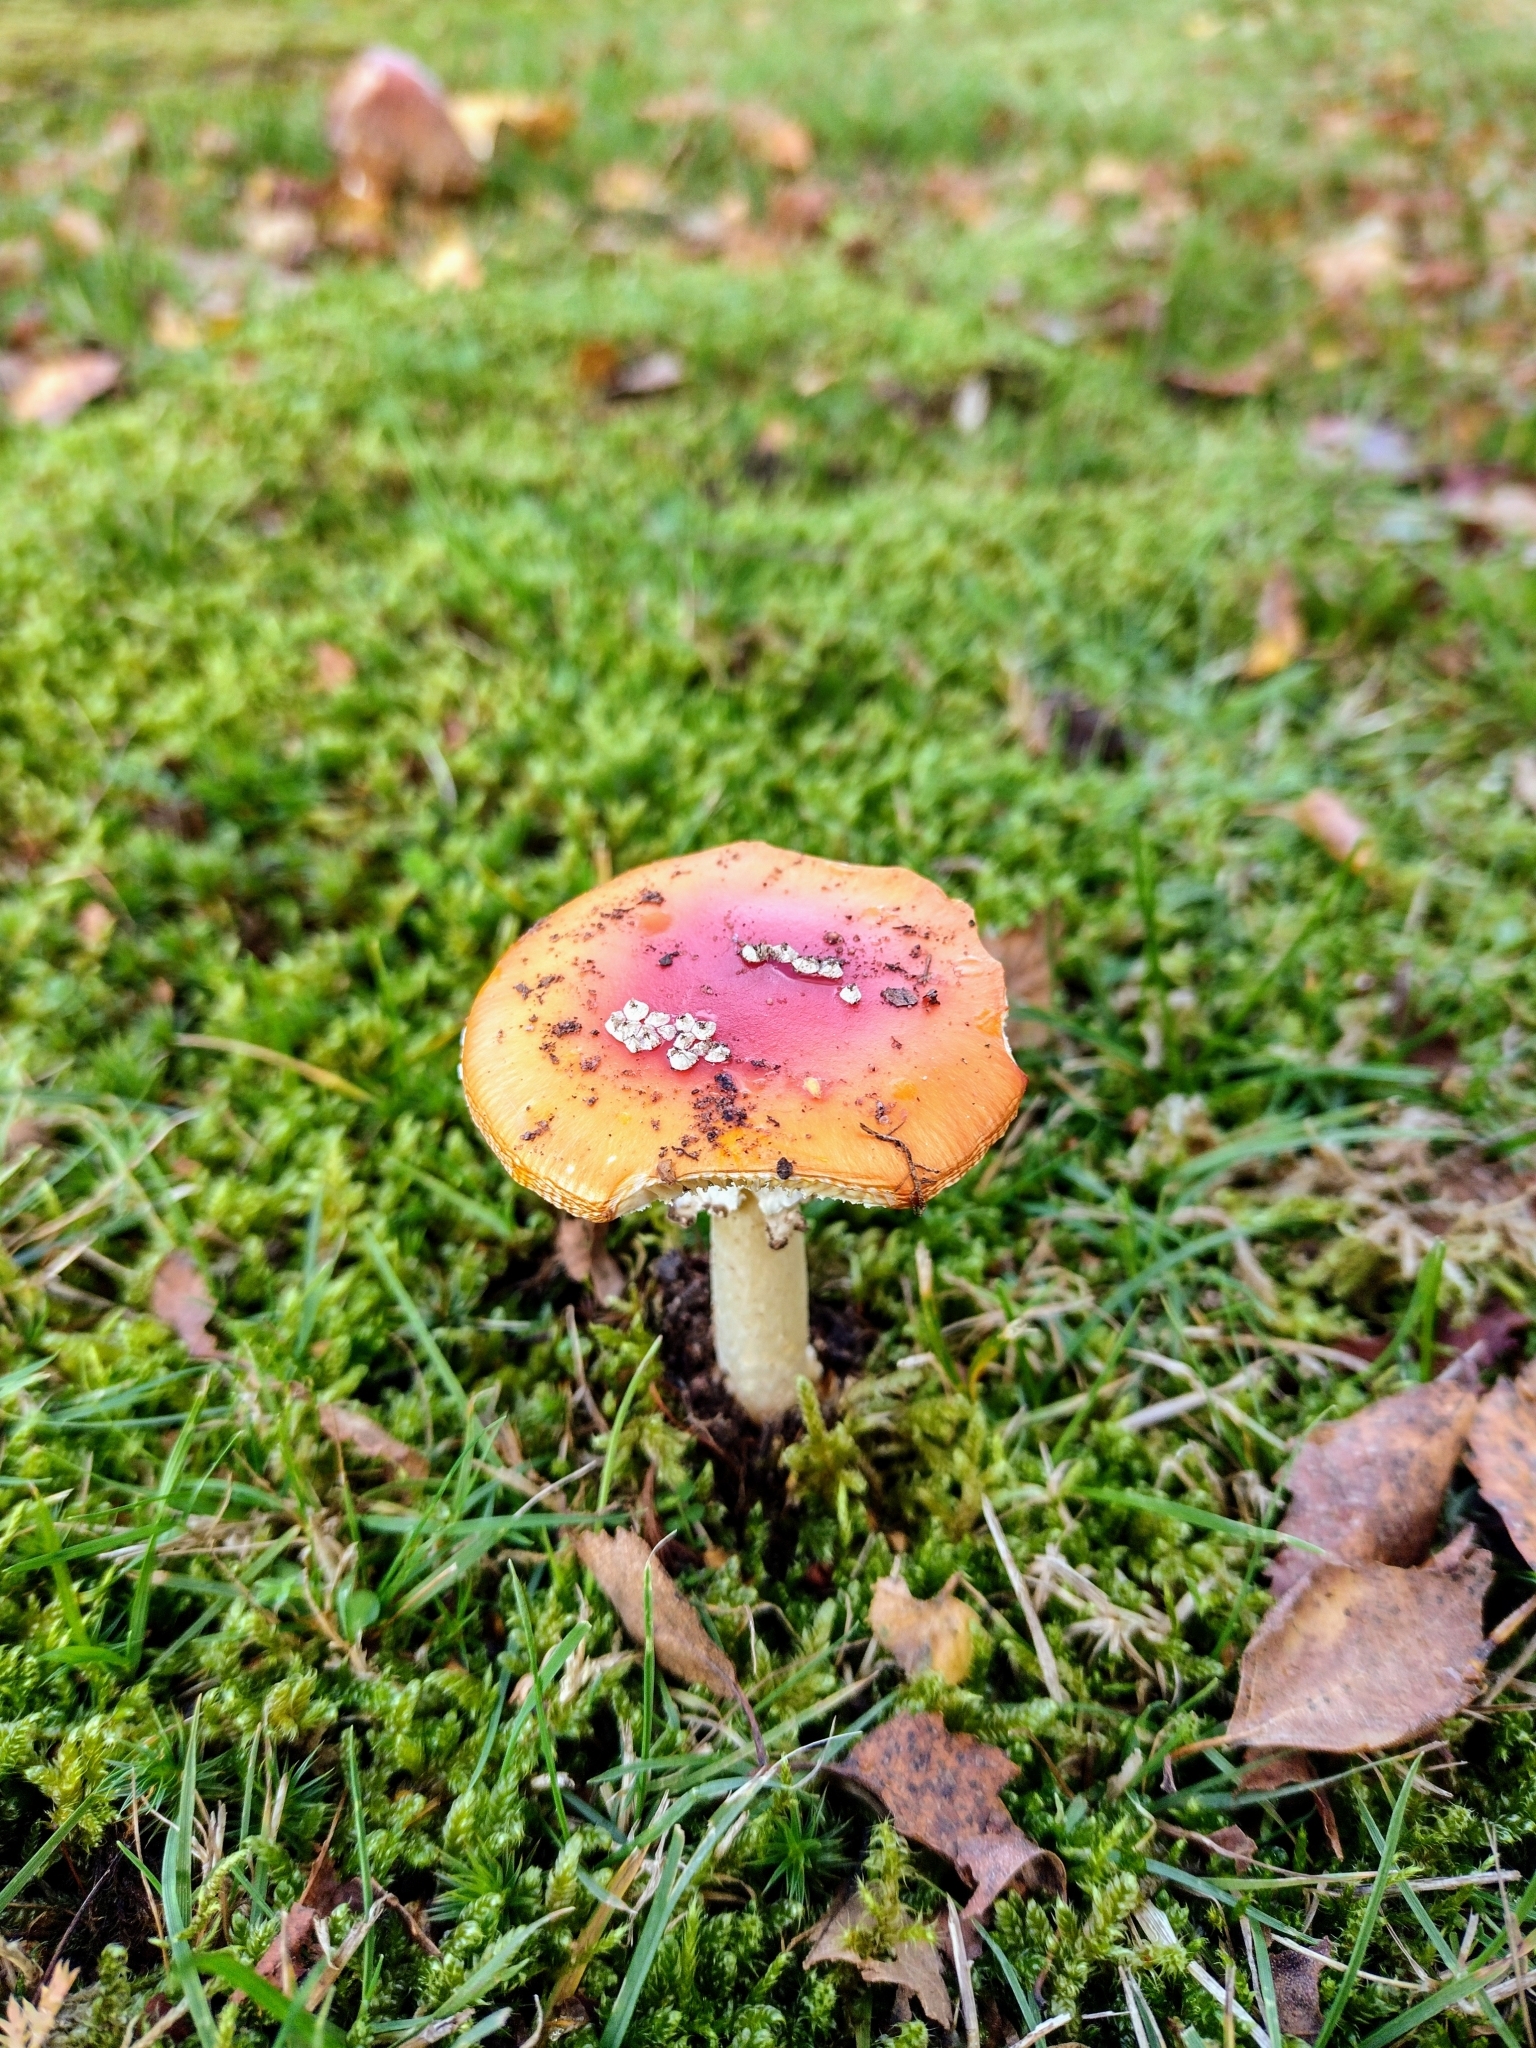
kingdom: Fungi
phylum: Basidiomycota
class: Agaricomycetes
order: Agaricales
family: Amanitaceae
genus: Amanita
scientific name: Amanita muscaria
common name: Fly agaric
